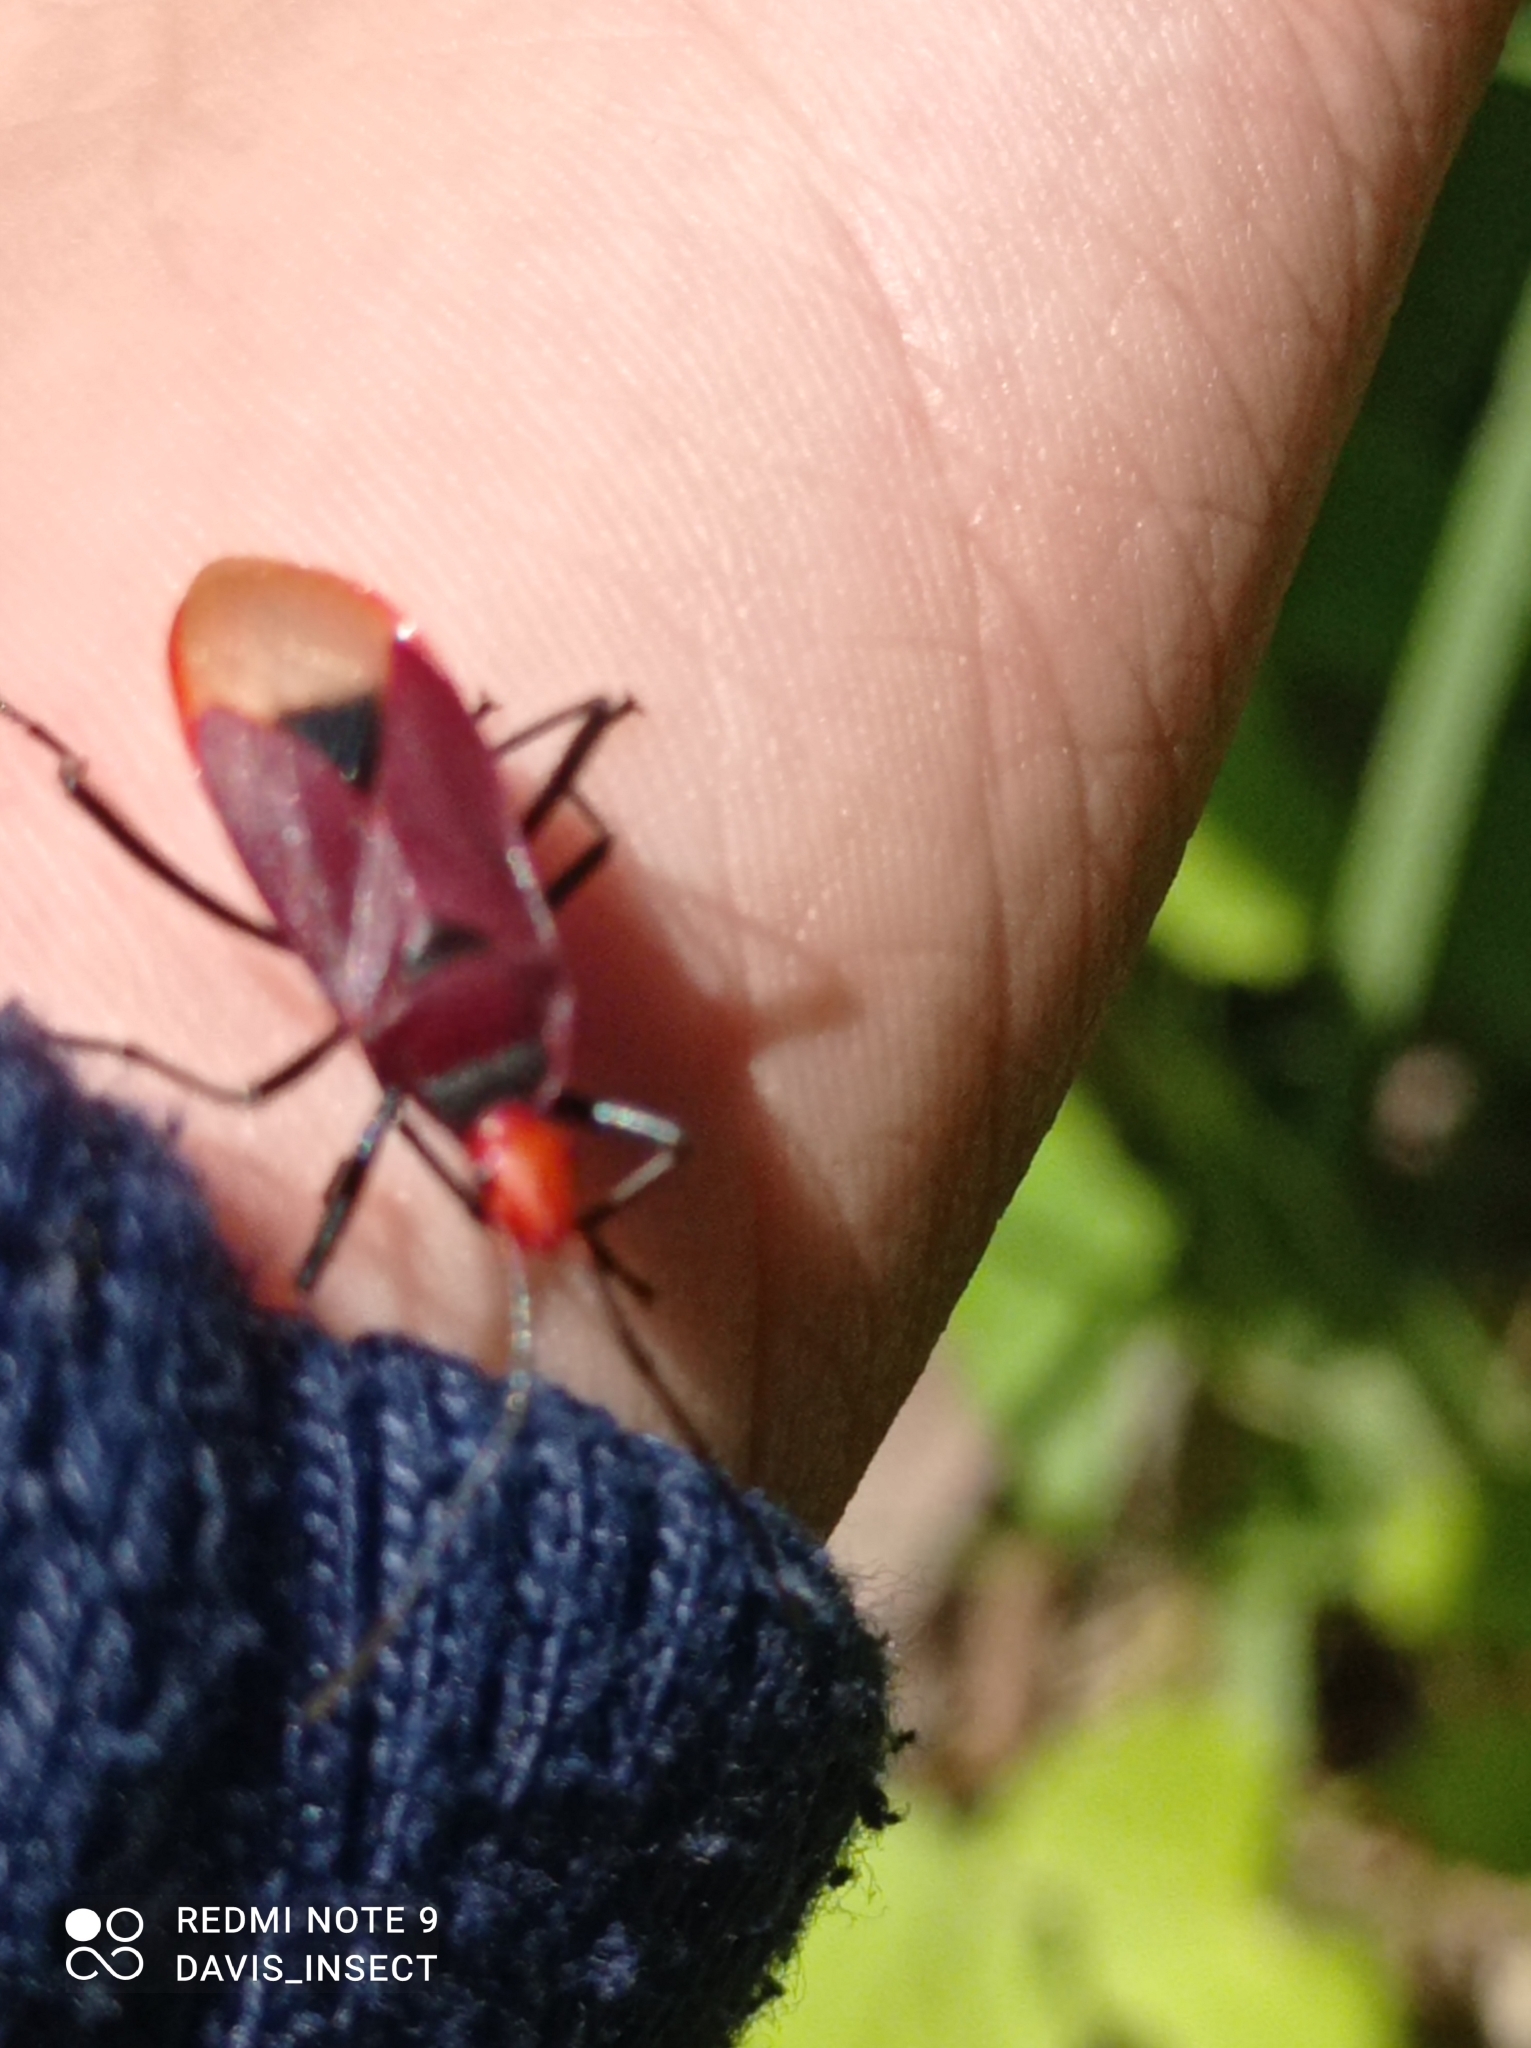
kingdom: Animalia
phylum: Arthropoda
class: Insecta
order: Hemiptera
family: Pyrrhocoridae
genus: Dindymus
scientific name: Dindymus
